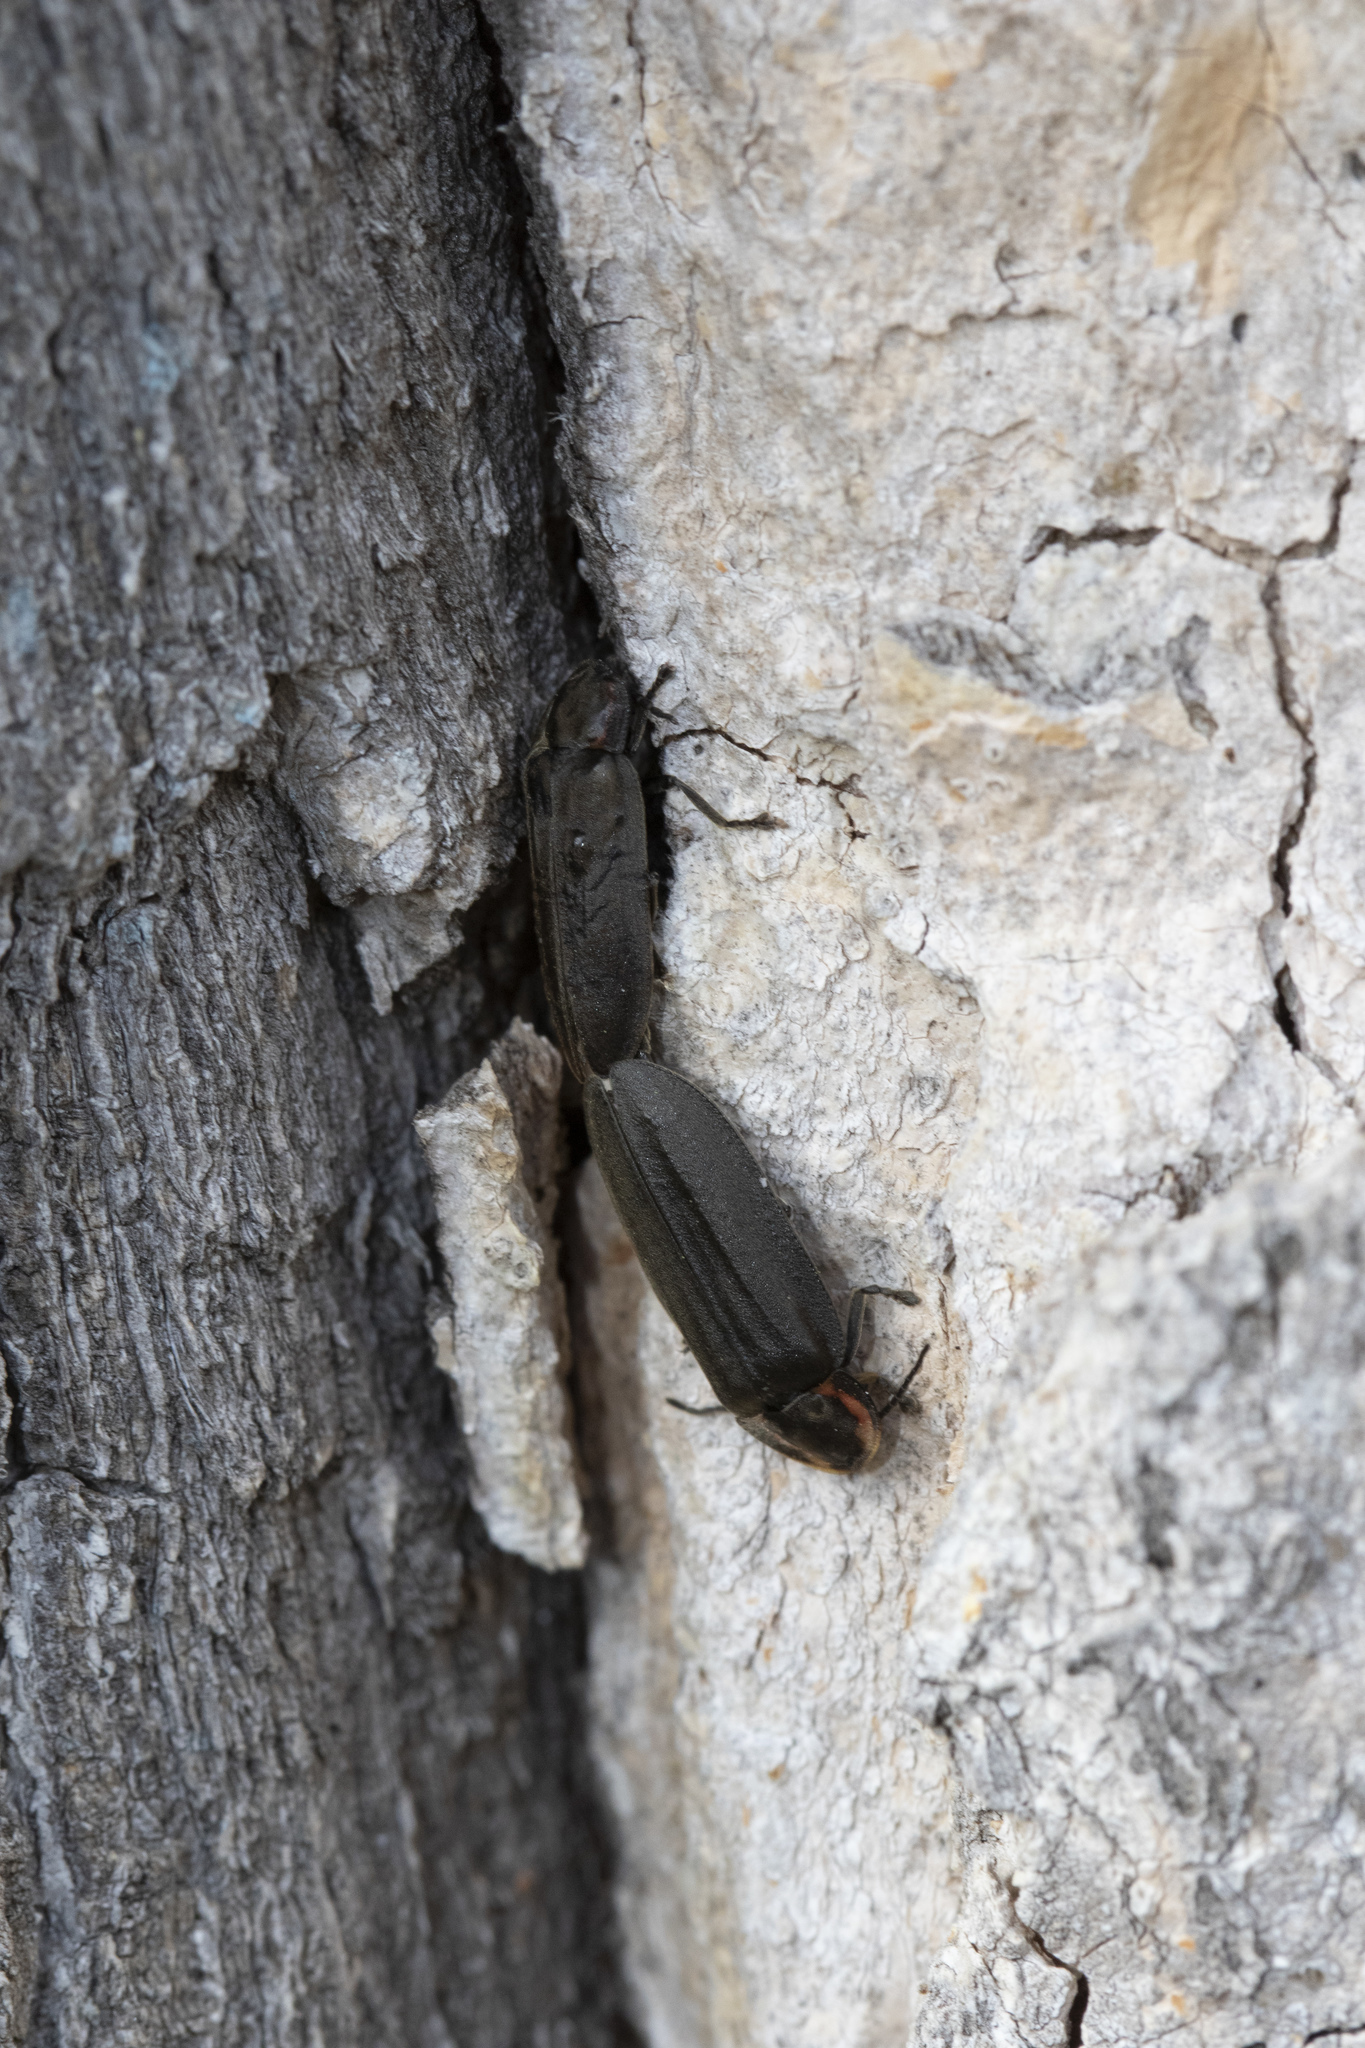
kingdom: Animalia
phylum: Arthropoda
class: Insecta
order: Coleoptera
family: Lampyridae
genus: Photinus
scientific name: Photinus corrusca
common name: Winter firefly
